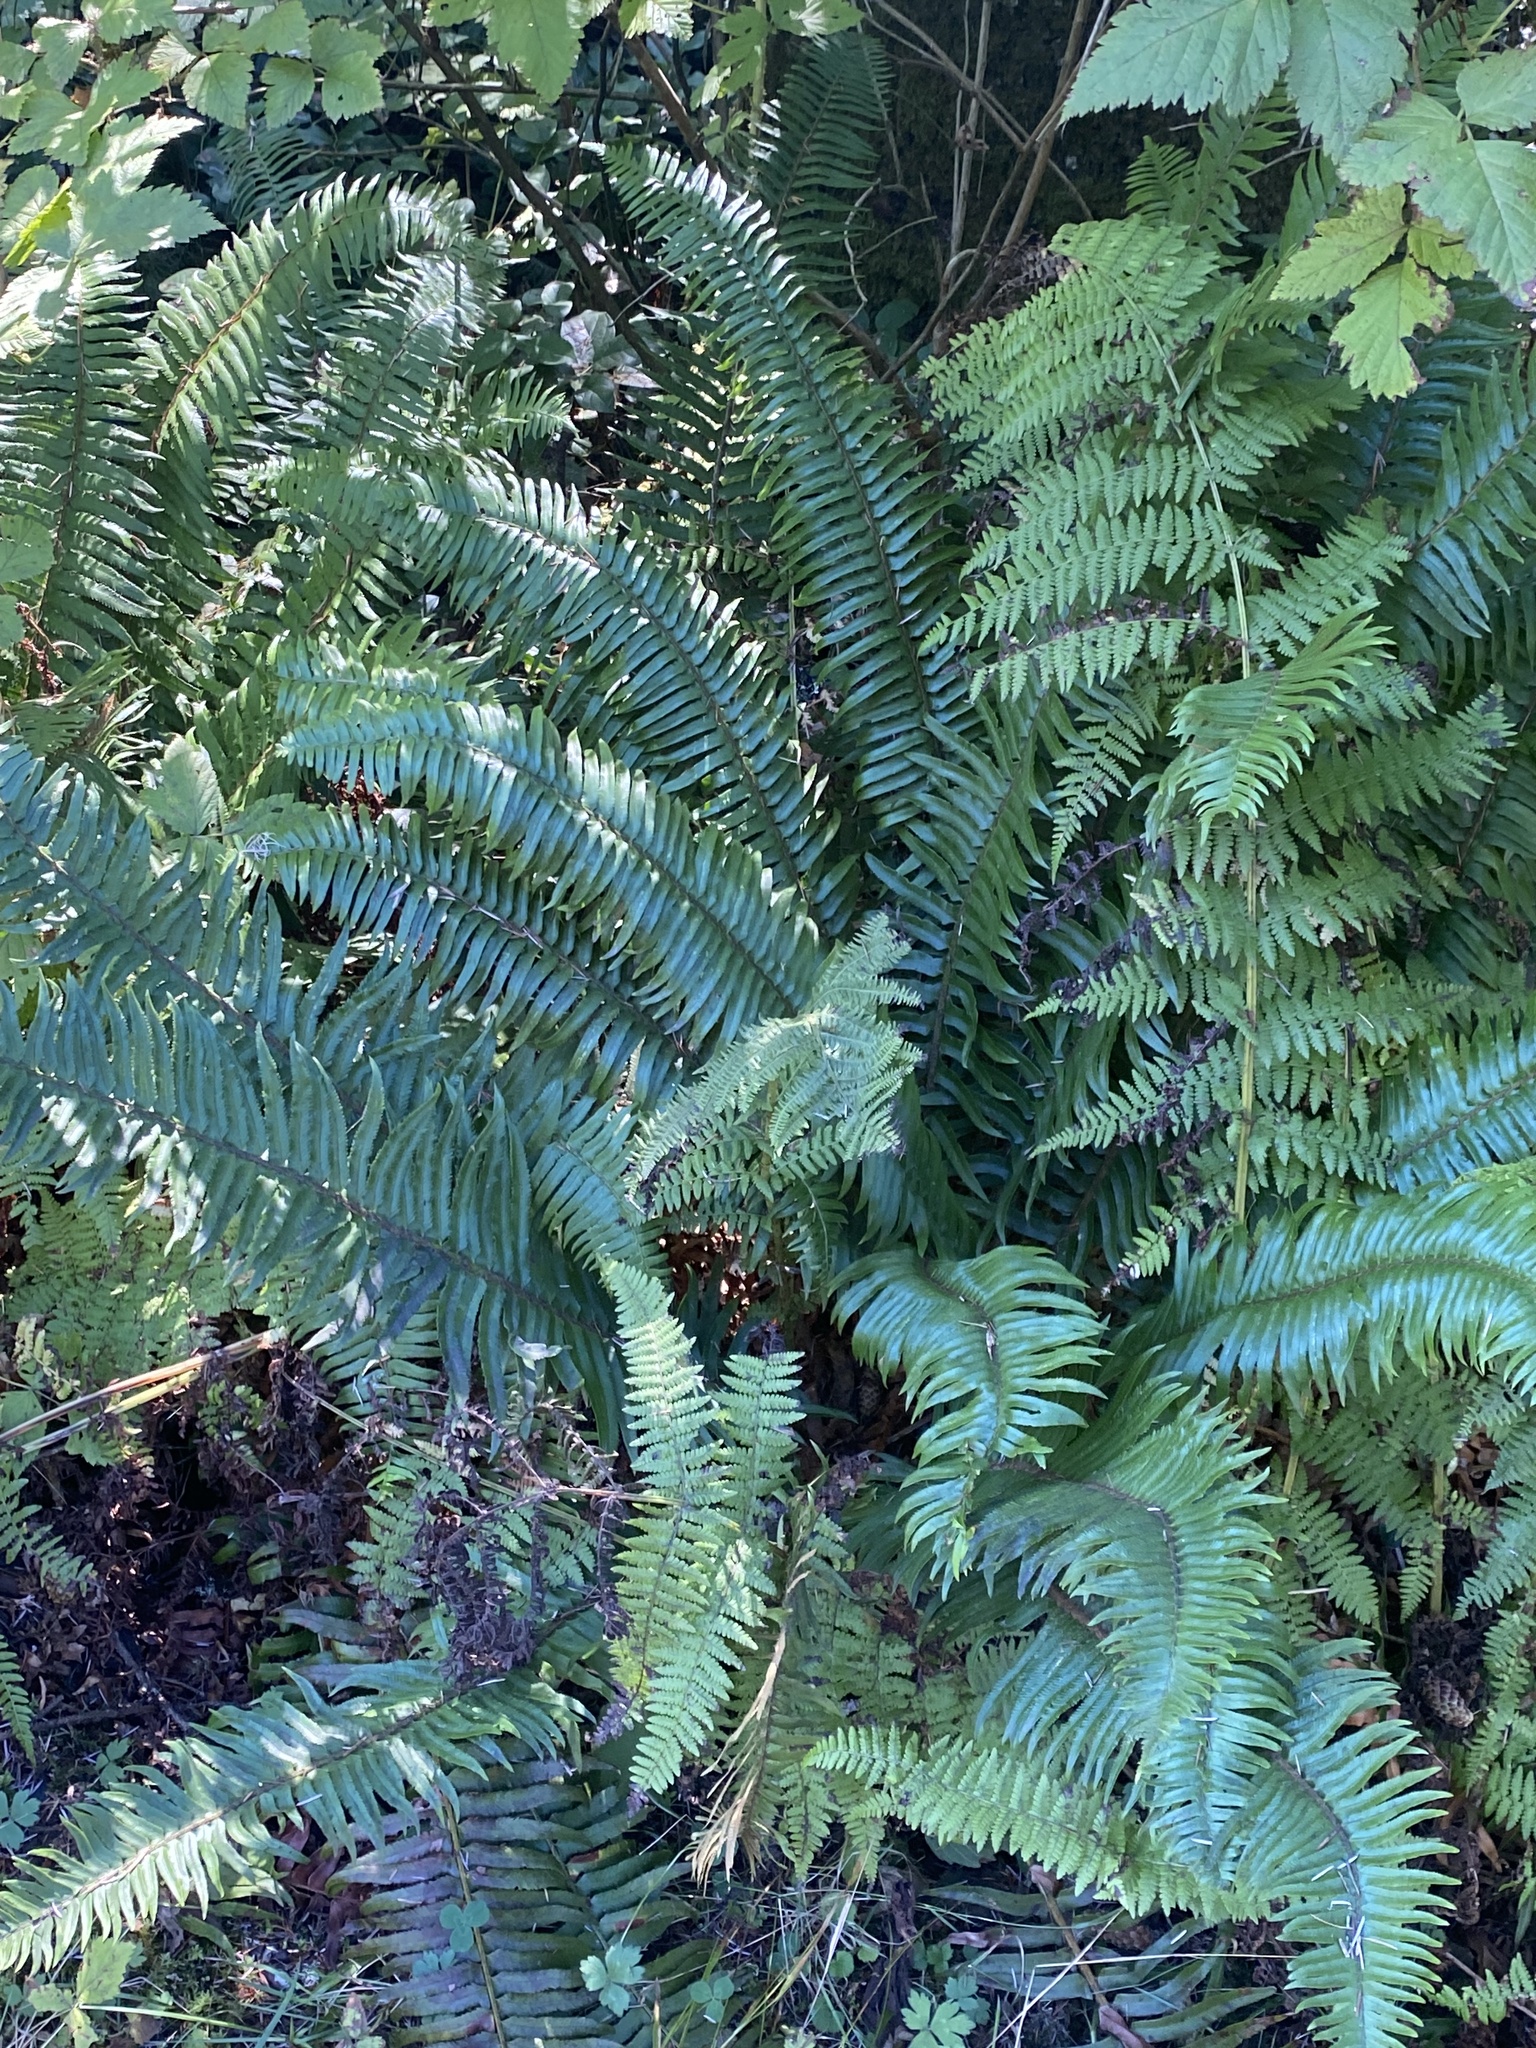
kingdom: Plantae
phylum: Tracheophyta
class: Polypodiopsida
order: Polypodiales
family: Dryopteridaceae
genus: Polystichum
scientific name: Polystichum munitum
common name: Western sword-fern
